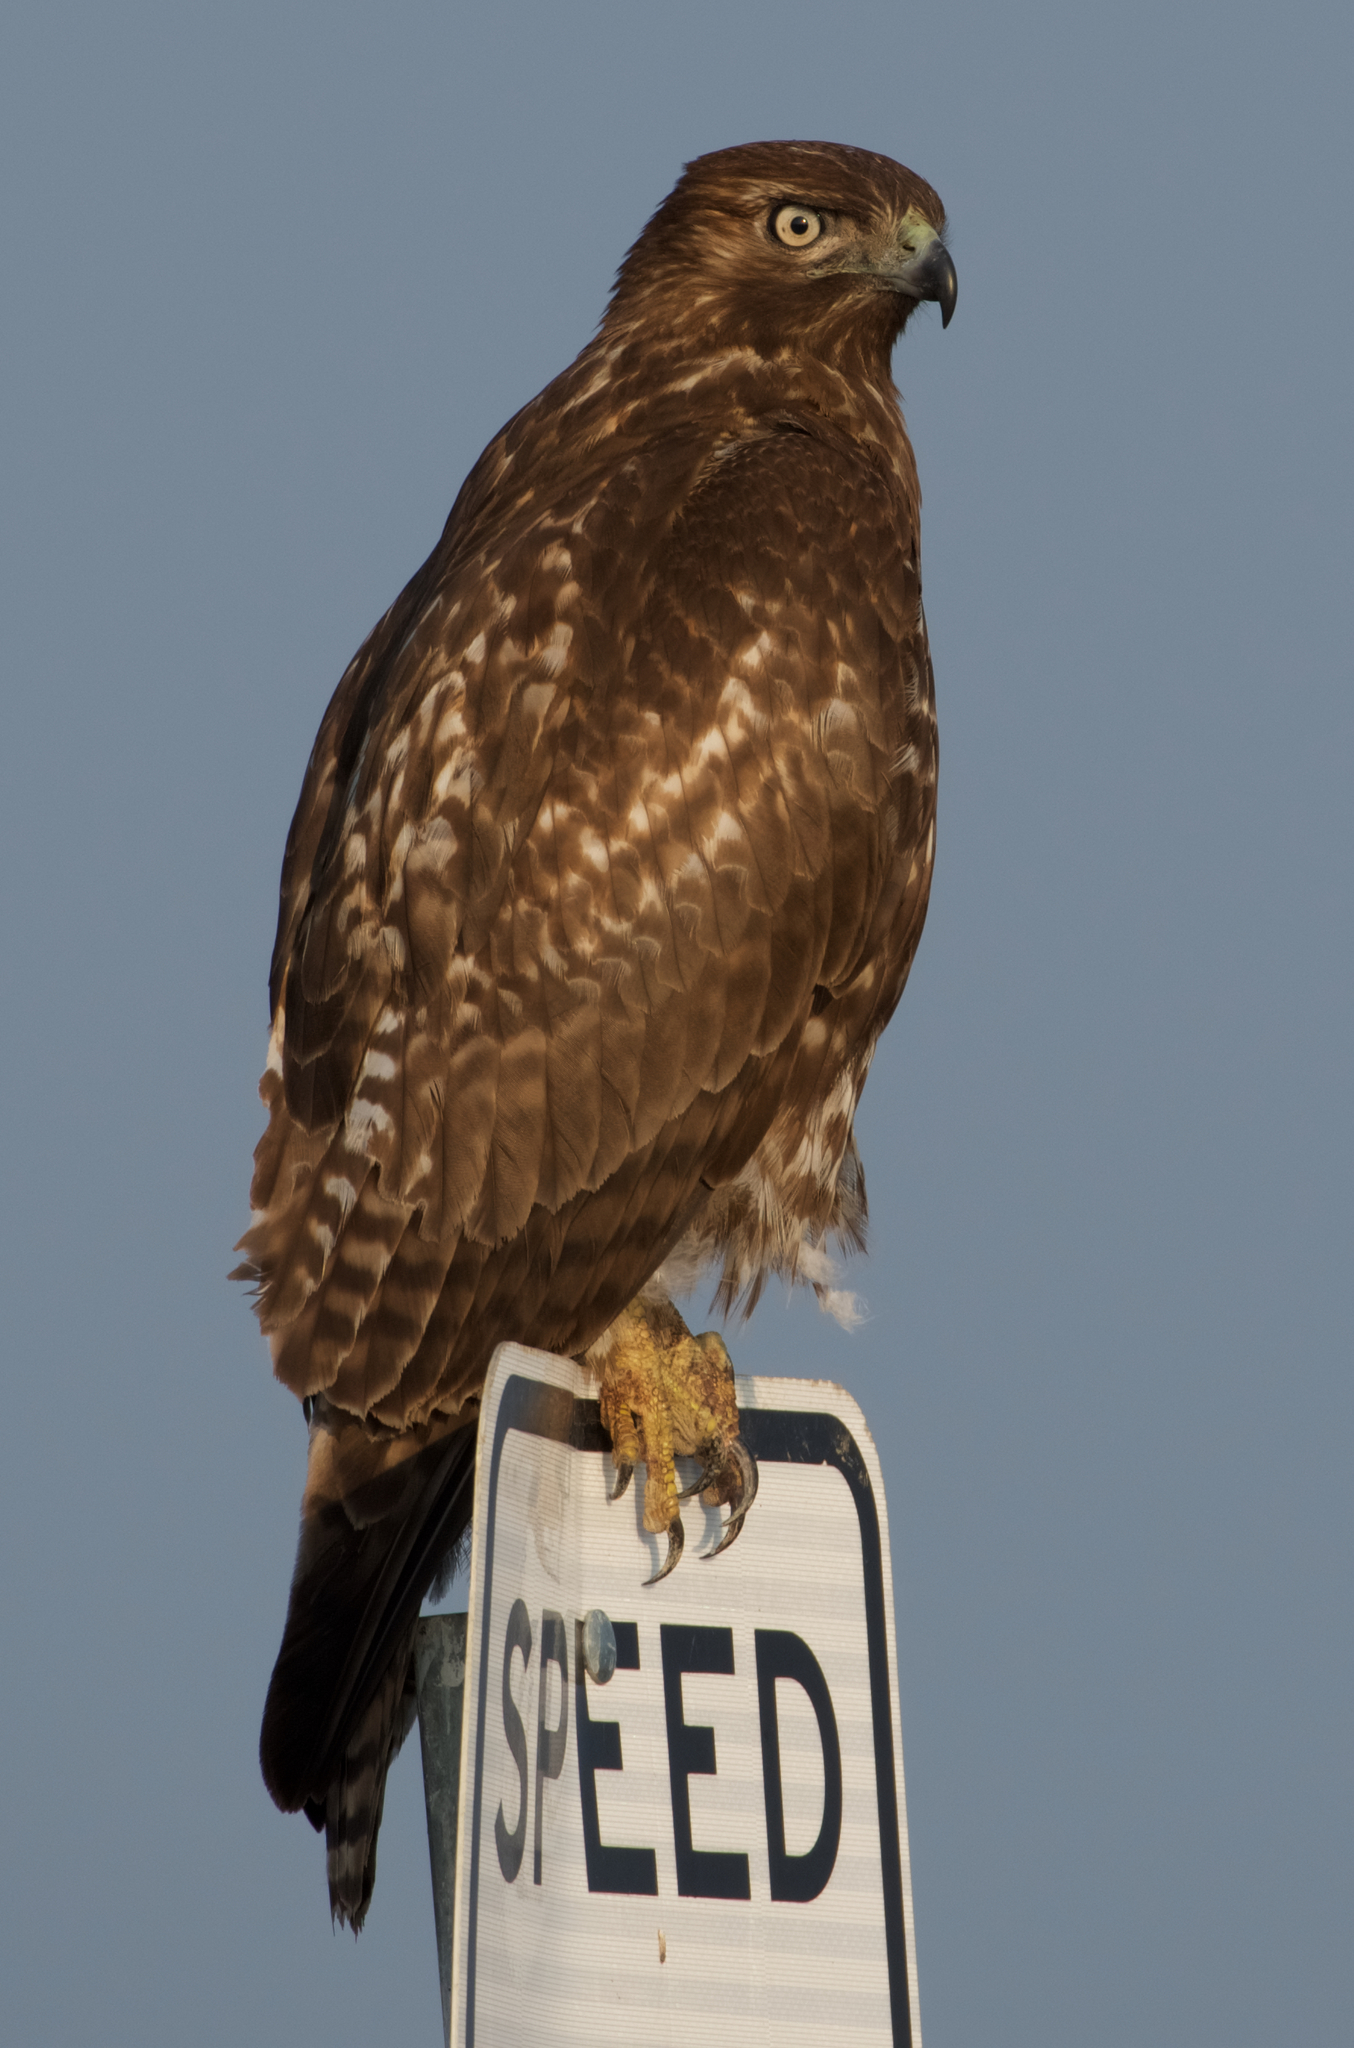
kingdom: Animalia
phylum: Chordata
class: Aves
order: Accipitriformes
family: Accipitridae
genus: Buteo
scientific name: Buteo jamaicensis
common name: Red-tailed hawk
